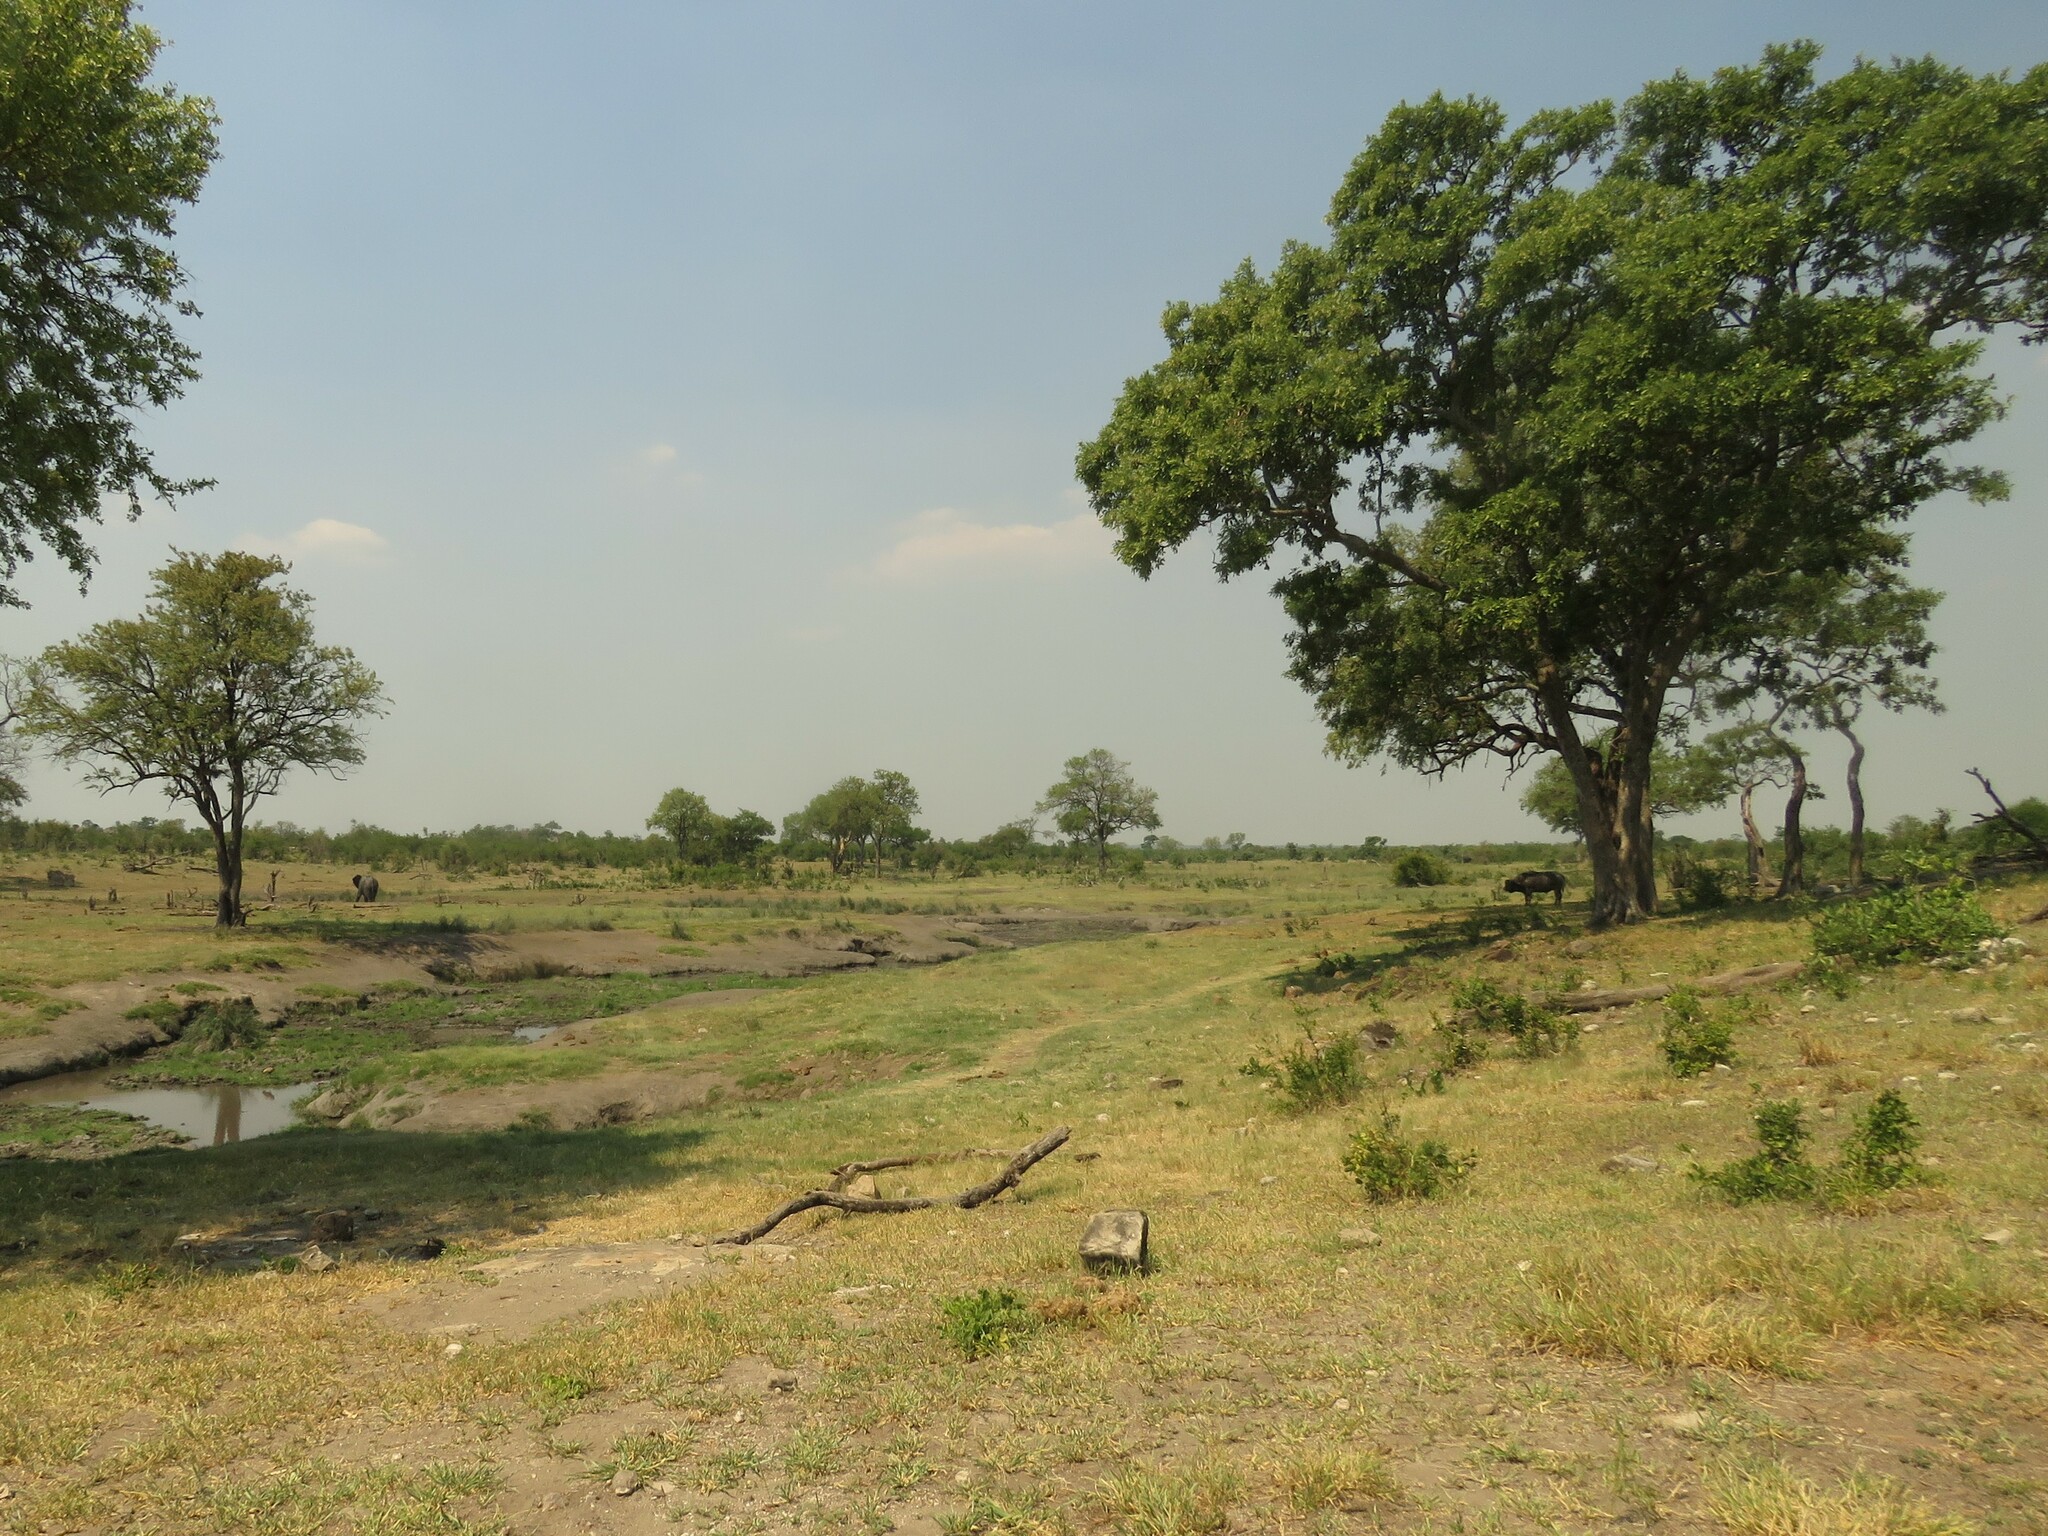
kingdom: Animalia
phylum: Chordata
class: Mammalia
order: Proboscidea
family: Elephantidae
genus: Loxodonta
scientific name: Loxodonta africana
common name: African elephant
